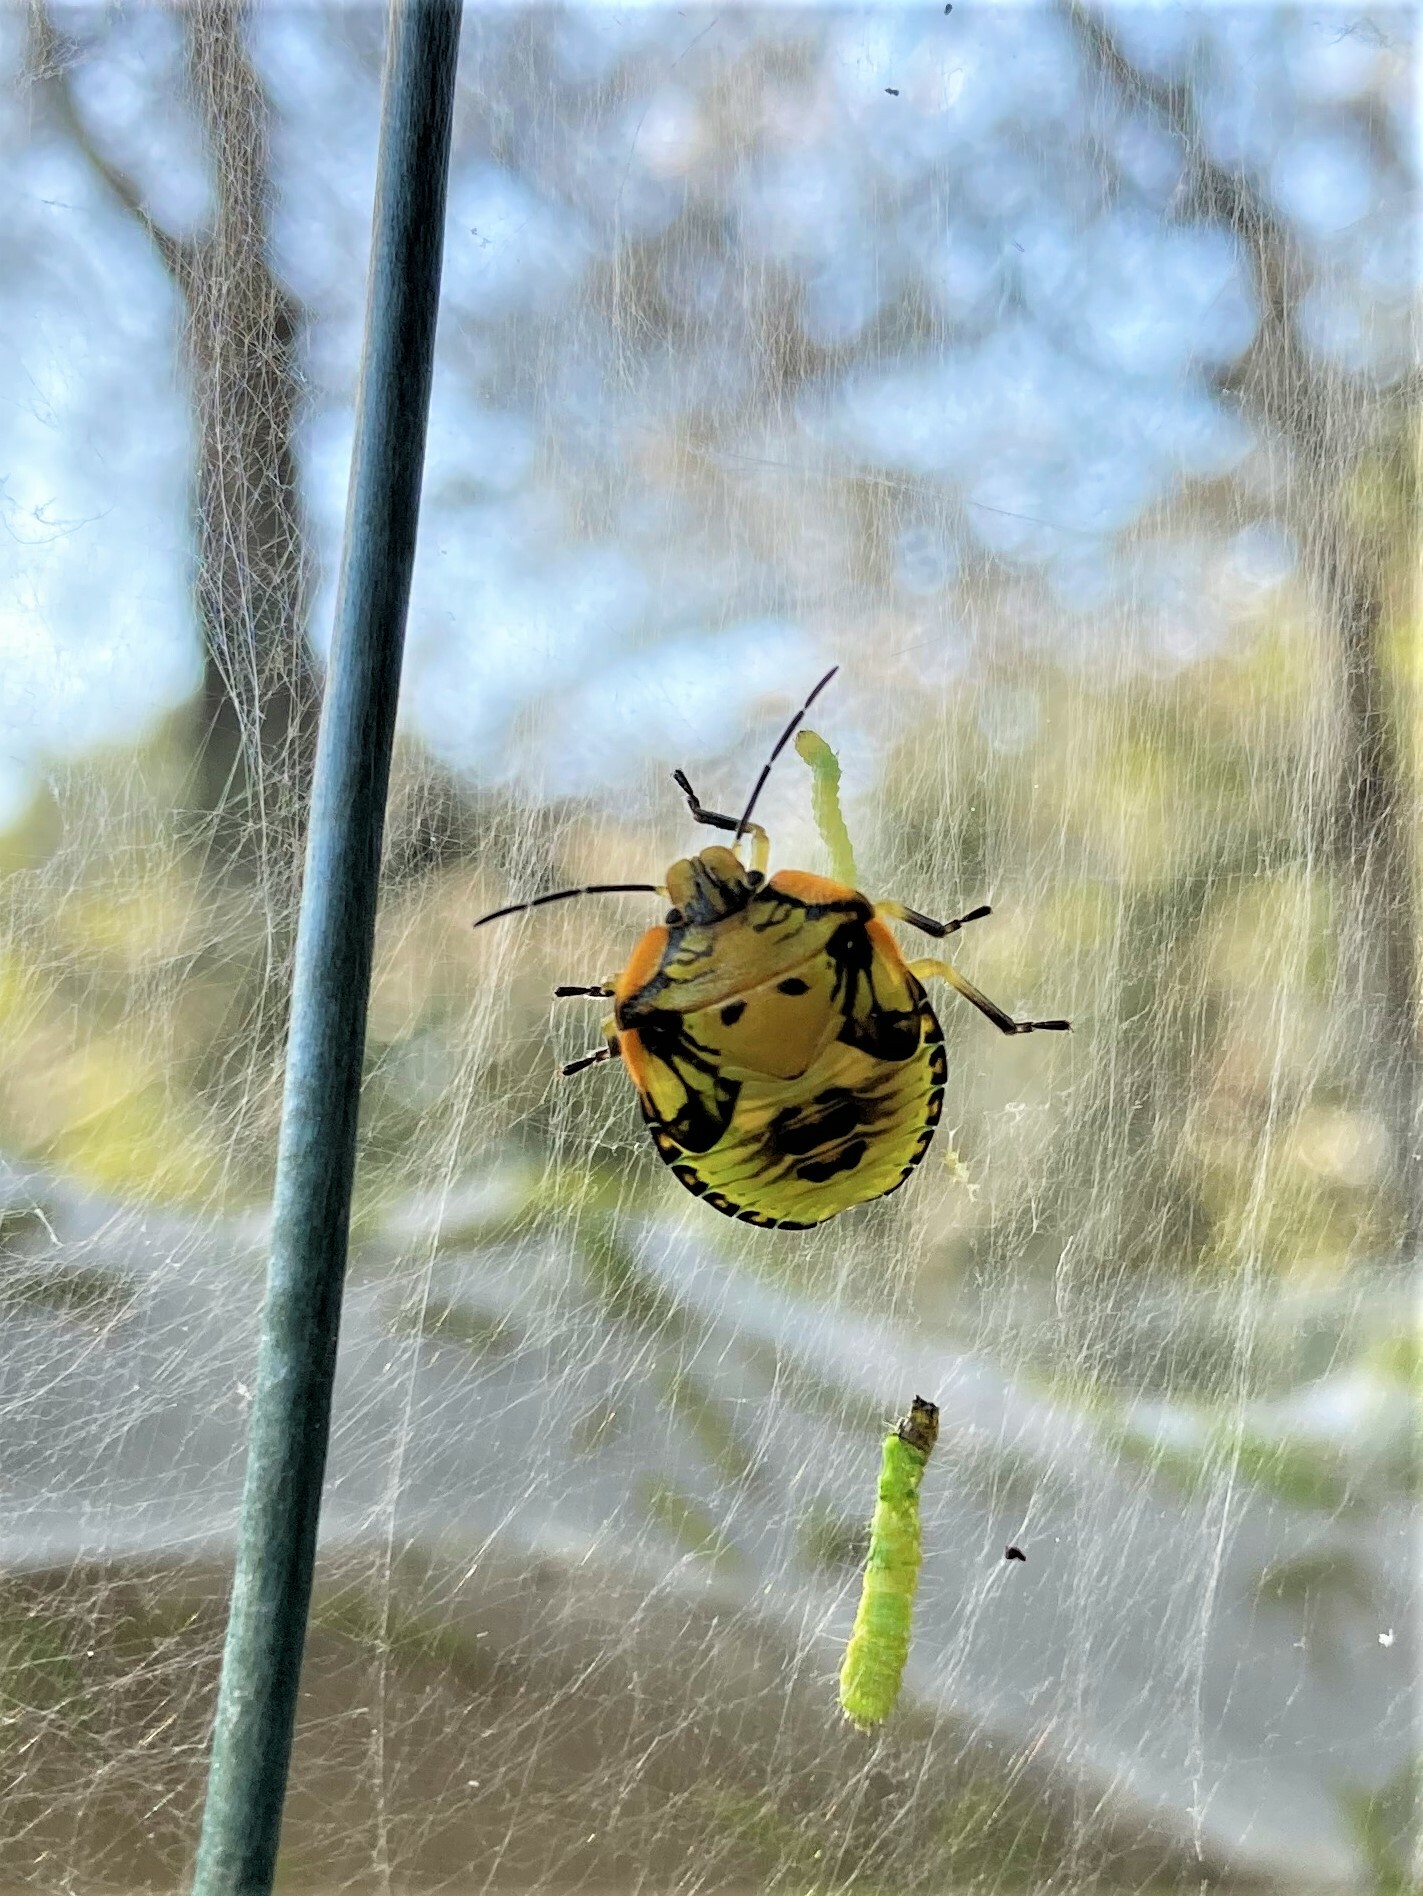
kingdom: Animalia
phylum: Arthropoda
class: Insecta
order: Hemiptera
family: Pentatomidae
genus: Chinavia
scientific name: Chinavia hilaris
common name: Green stink bug
